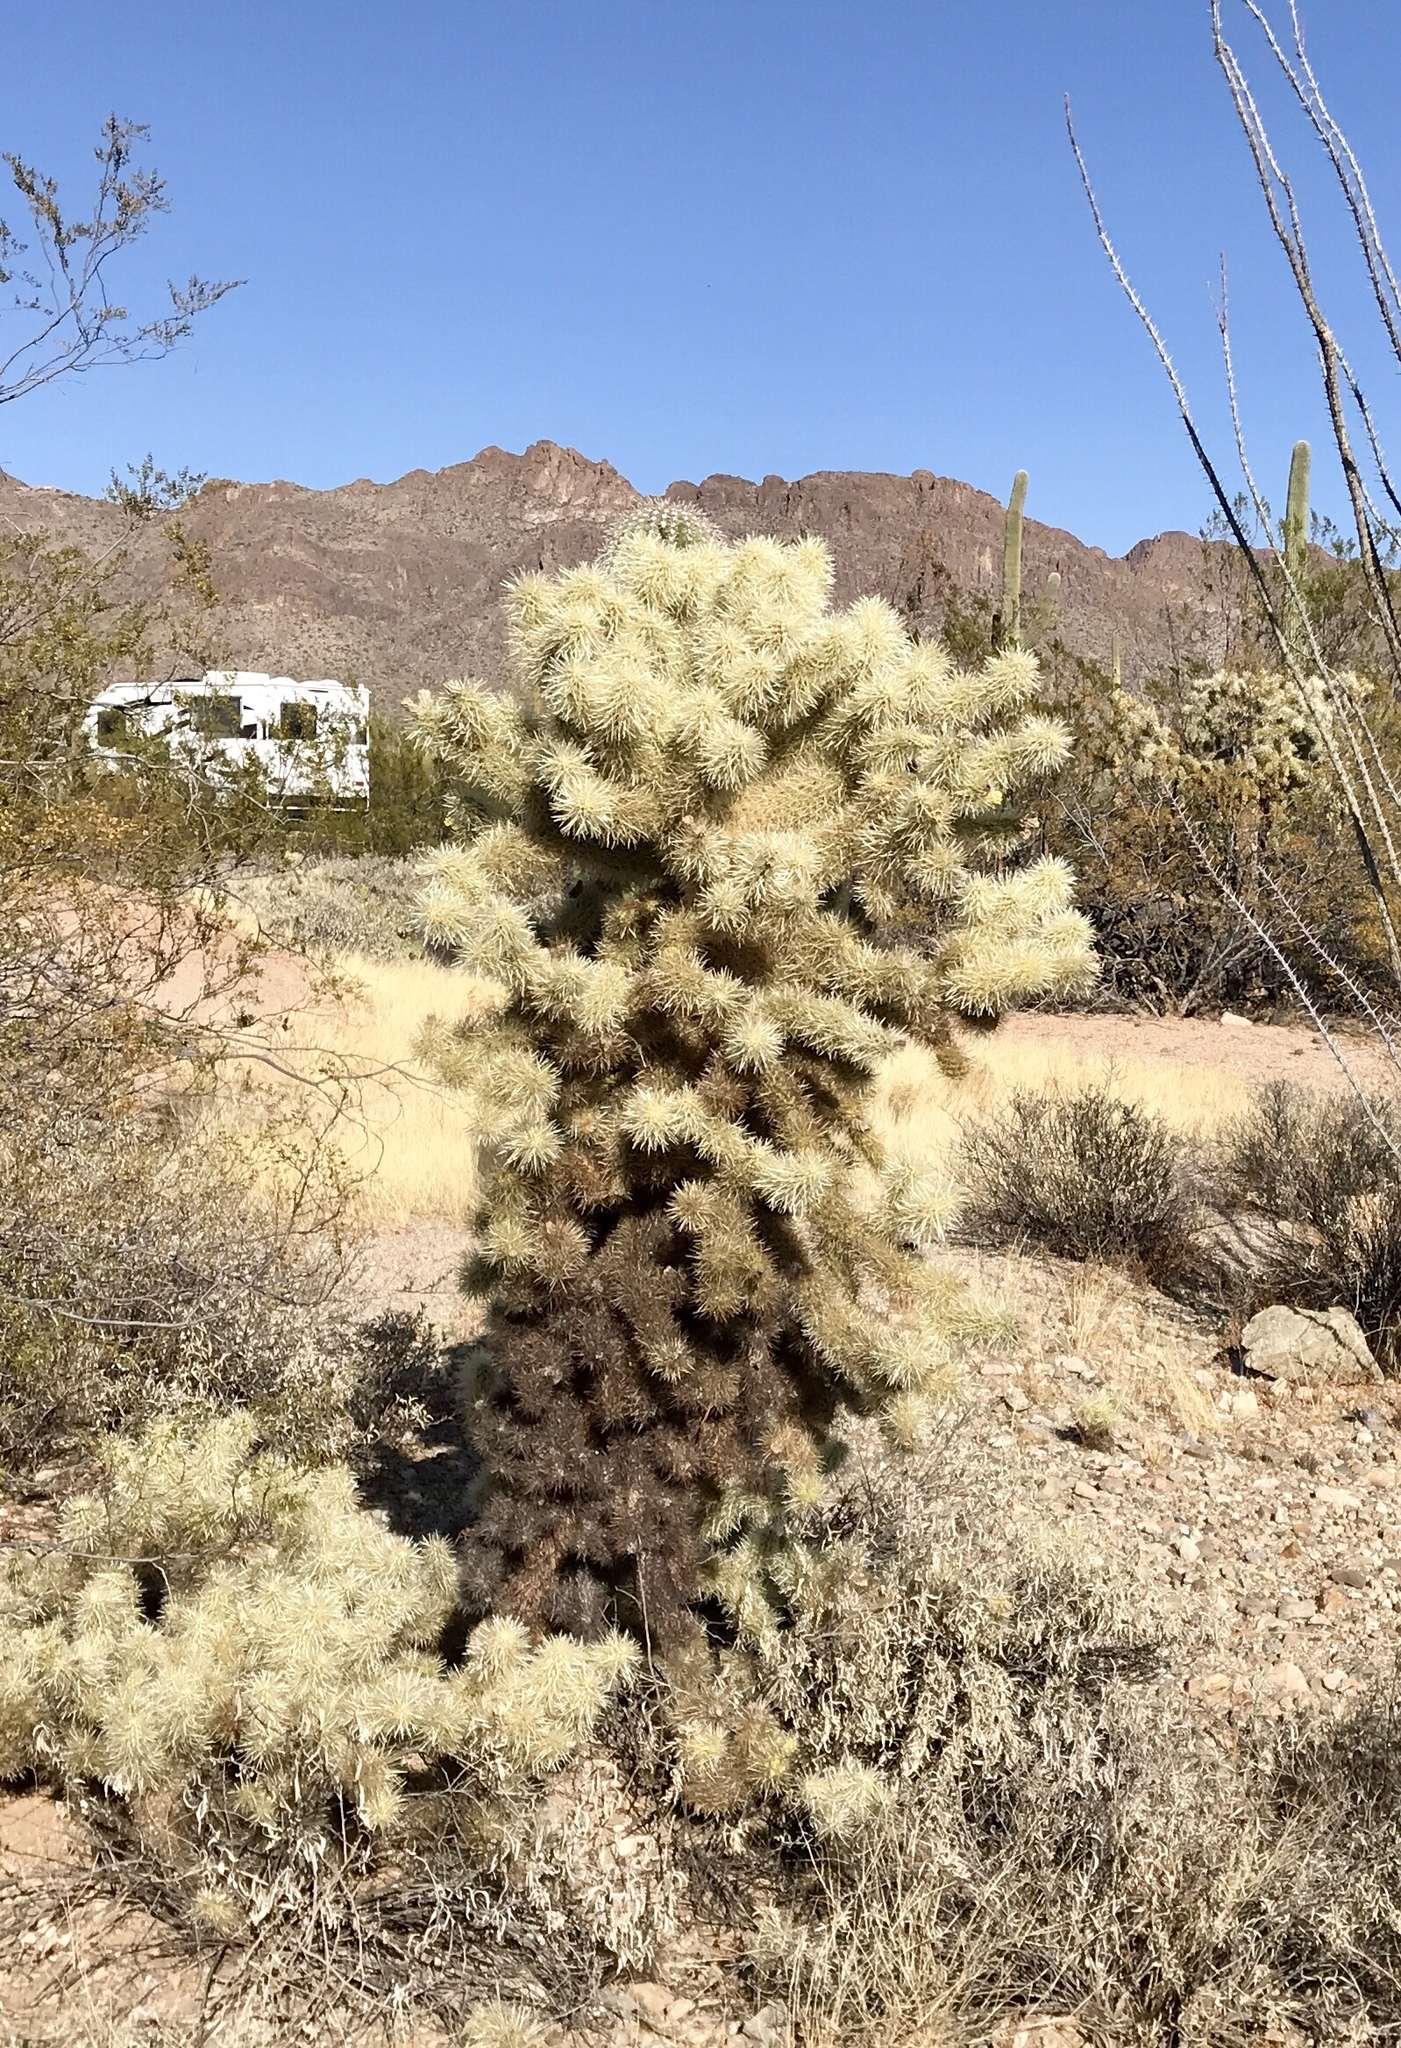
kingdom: Plantae
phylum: Tracheophyta
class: Magnoliopsida
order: Caryophyllales
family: Cactaceae
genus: Cylindropuntia
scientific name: Cylindropuntia fosbergii
